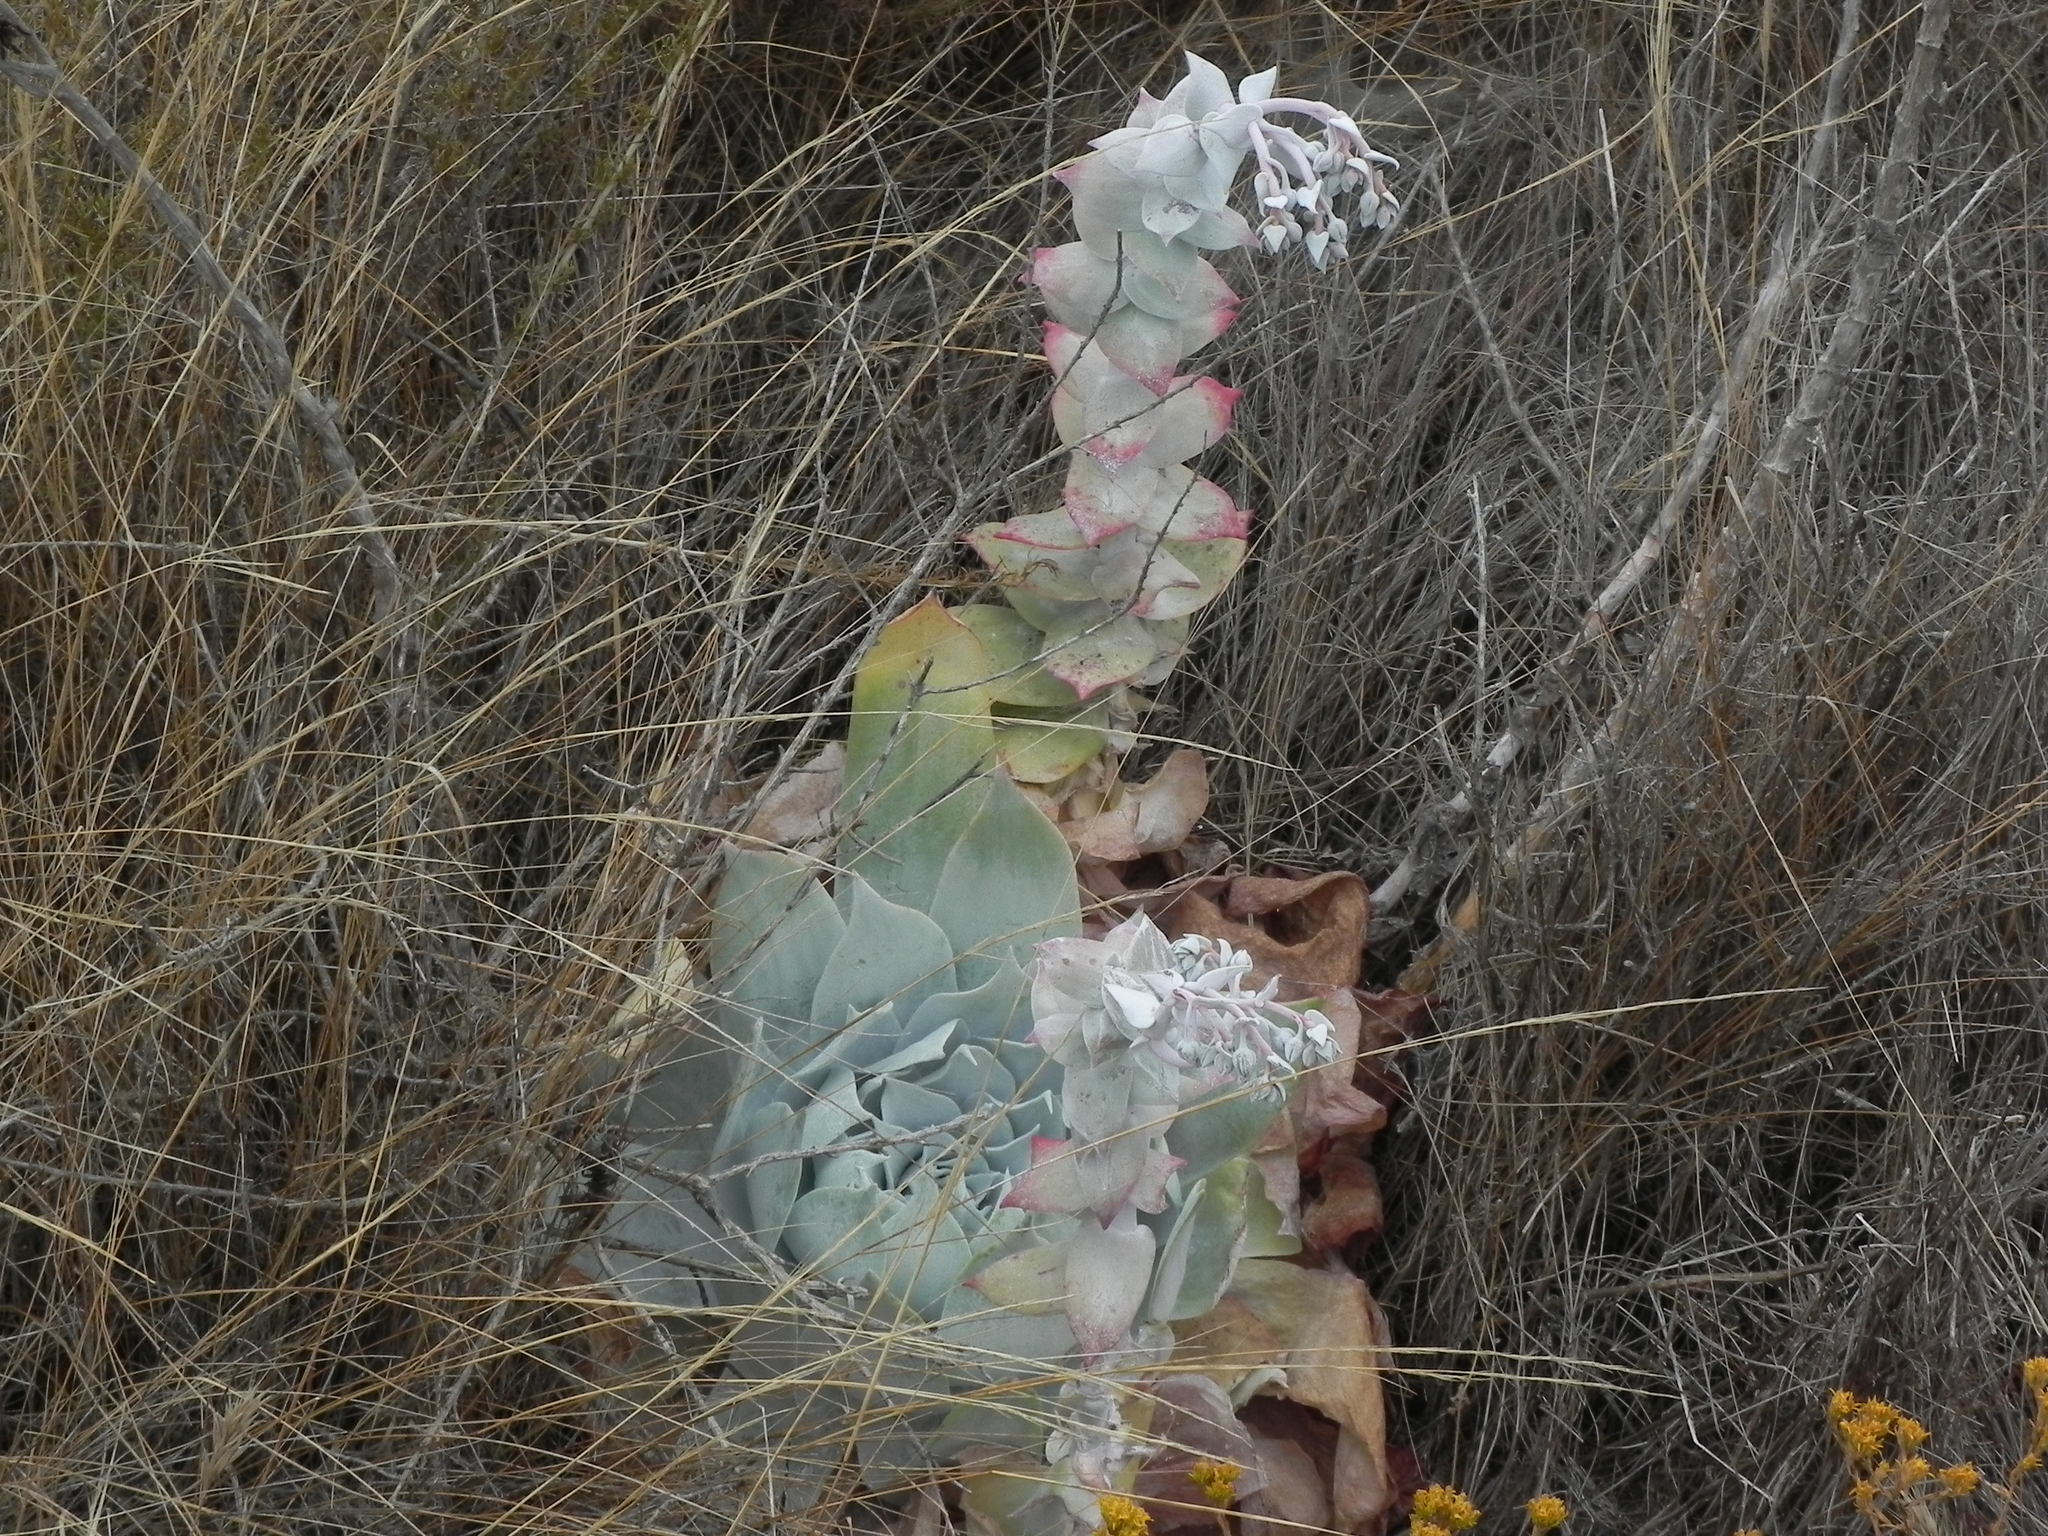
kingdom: Plantae
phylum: Tracheophyta
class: Magnoliopsida
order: Saxifragales
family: Crassulaceae
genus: Dudleya
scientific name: Dudleya pulverulenta
